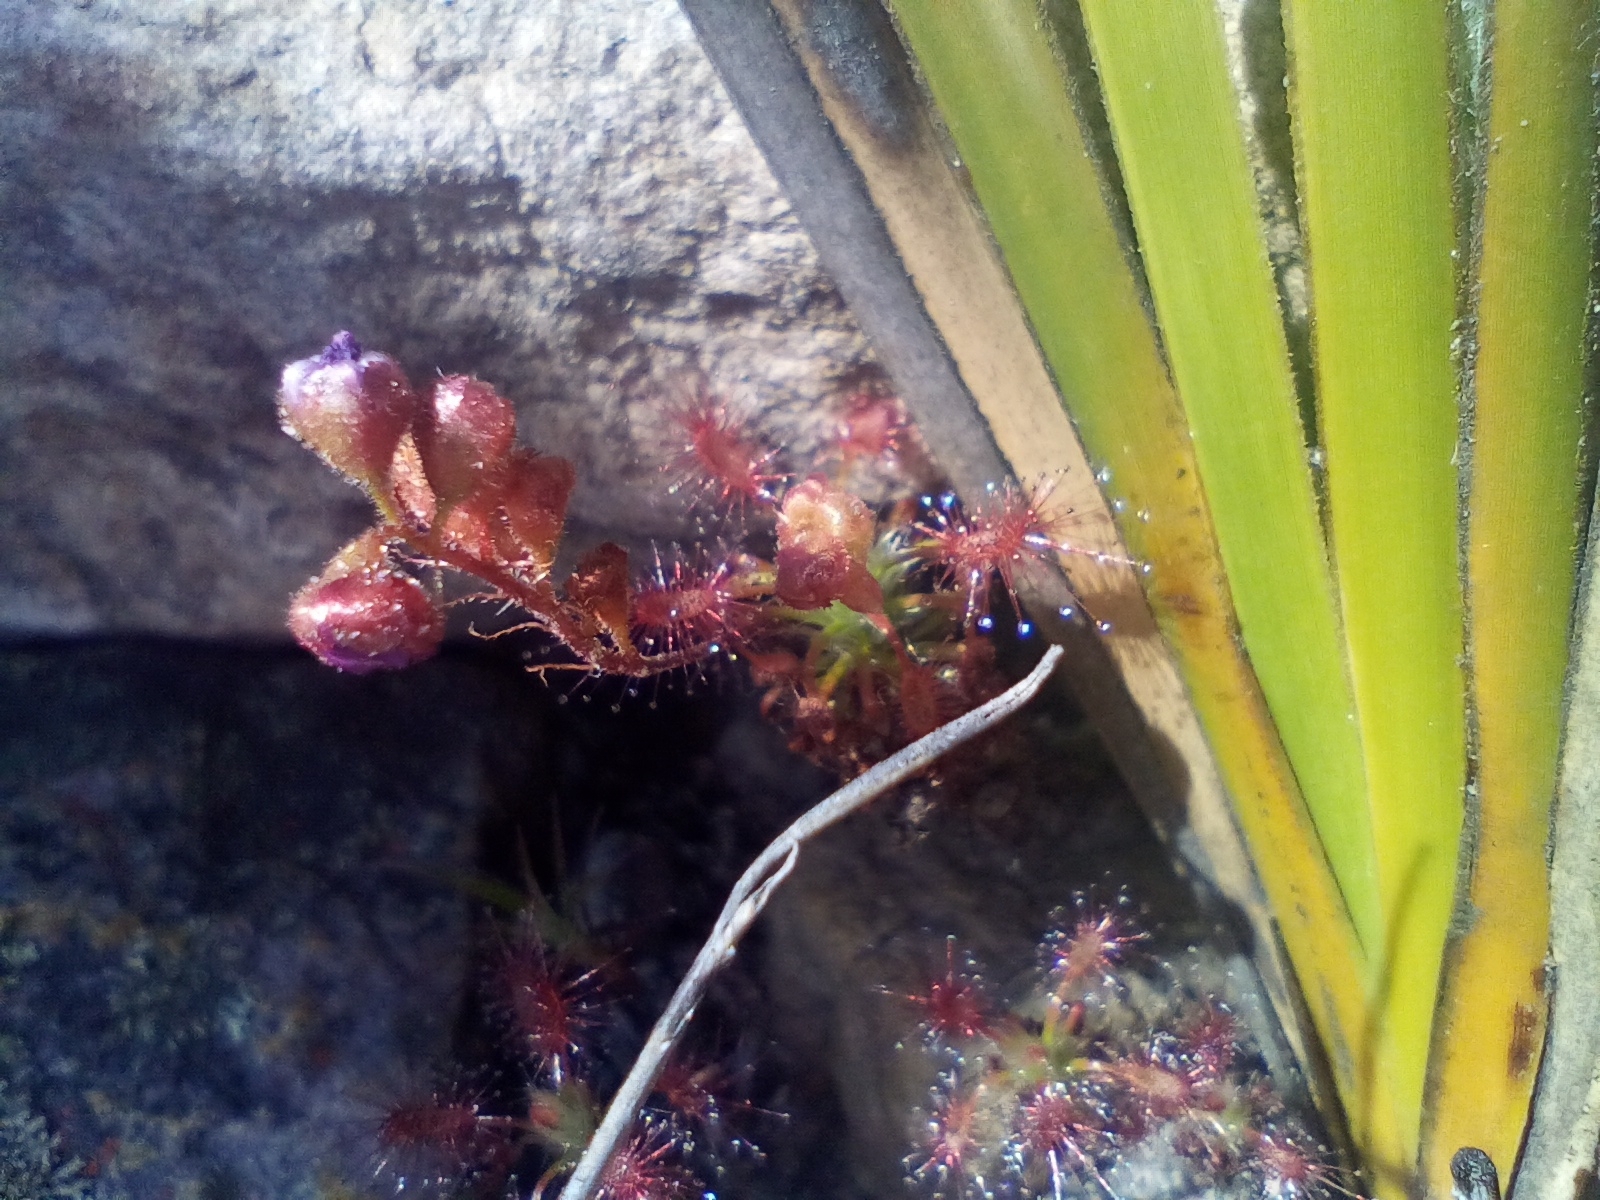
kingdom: Plantae
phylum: Tracheophyta
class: Magnoliopsida
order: Caryophyllales
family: Droseraceae
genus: Drosera
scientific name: Drosera gibsonii
